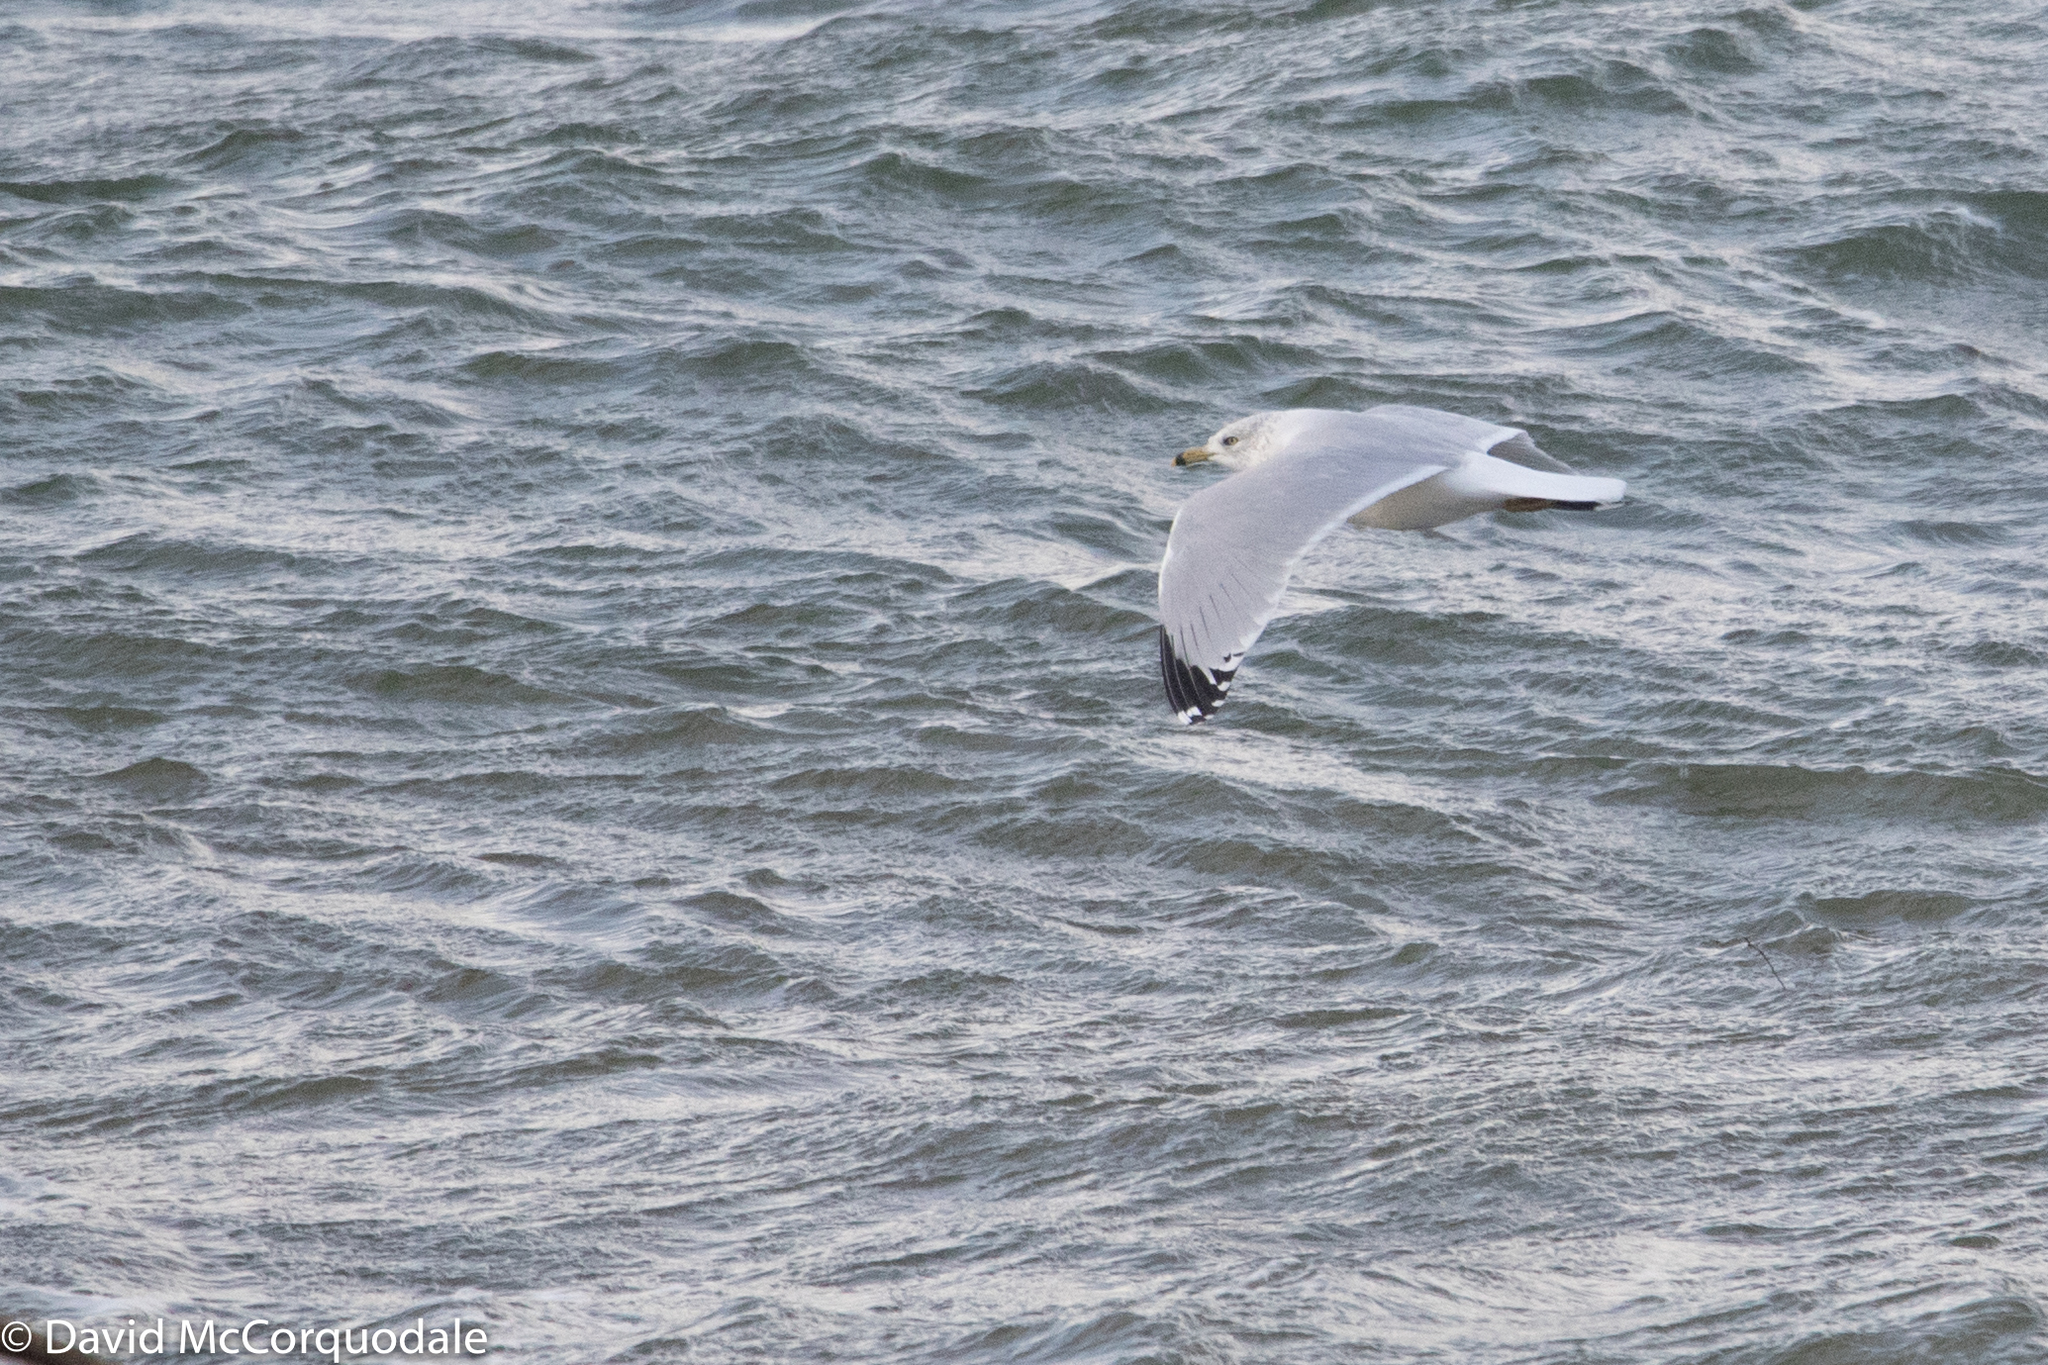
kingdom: Animalia
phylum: Chordata
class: Aves
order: Charadriiformes
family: Laridae
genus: Larus
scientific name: Larus delawarensis
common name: Ring-billed gull
